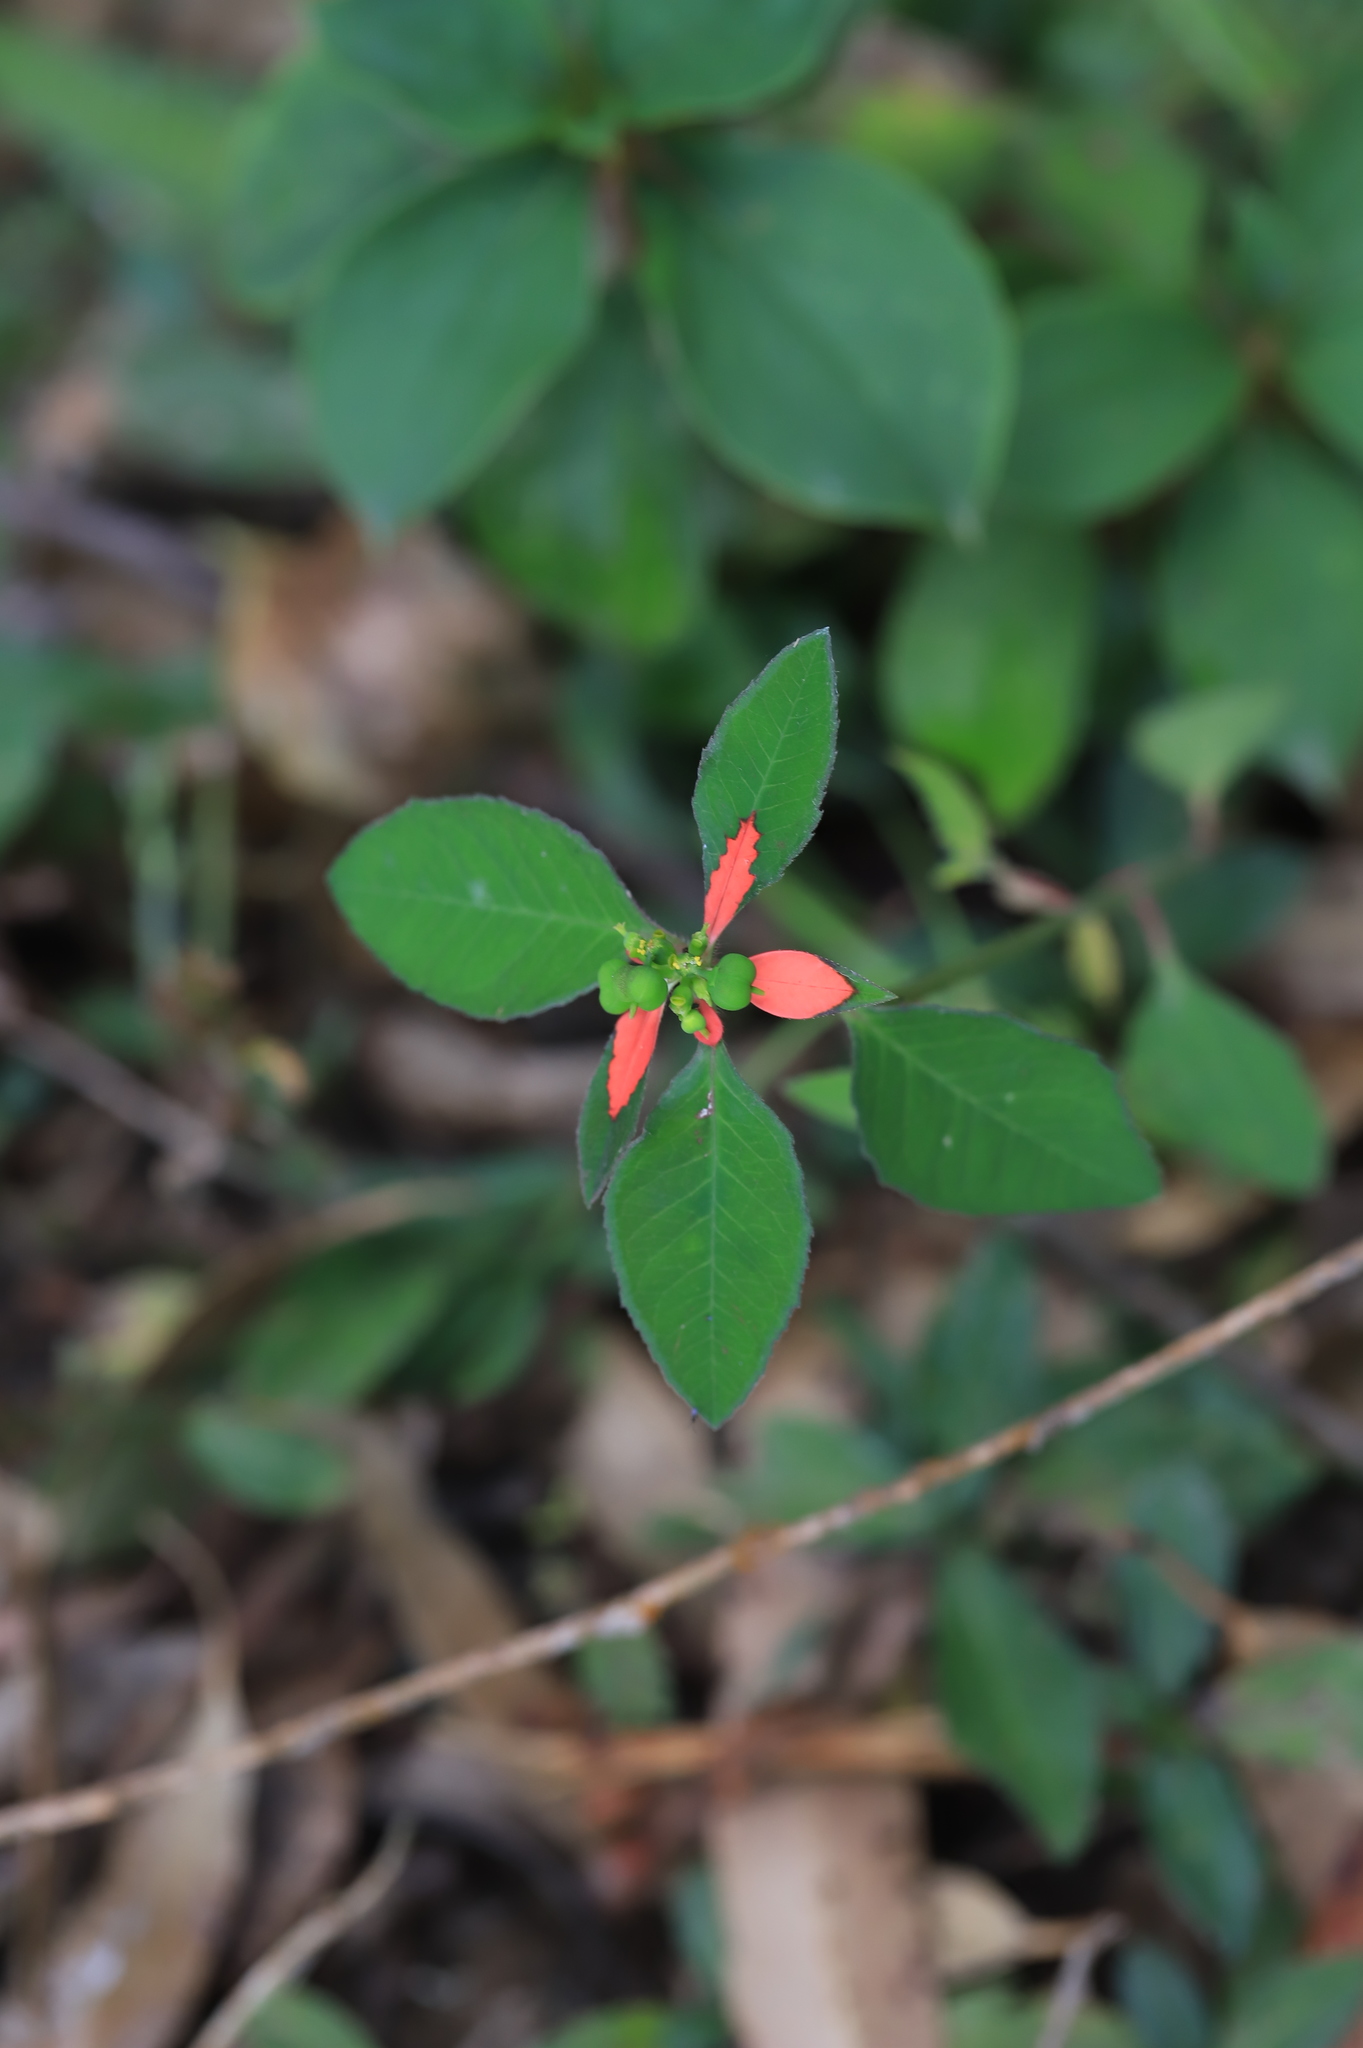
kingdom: Plantae
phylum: Tracheophyta
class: Magnoliopsida
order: Malpighiales
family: Euphorbiaceae
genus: Euphorbia
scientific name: Euphorbia heterophylla
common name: Mexican fireplant
